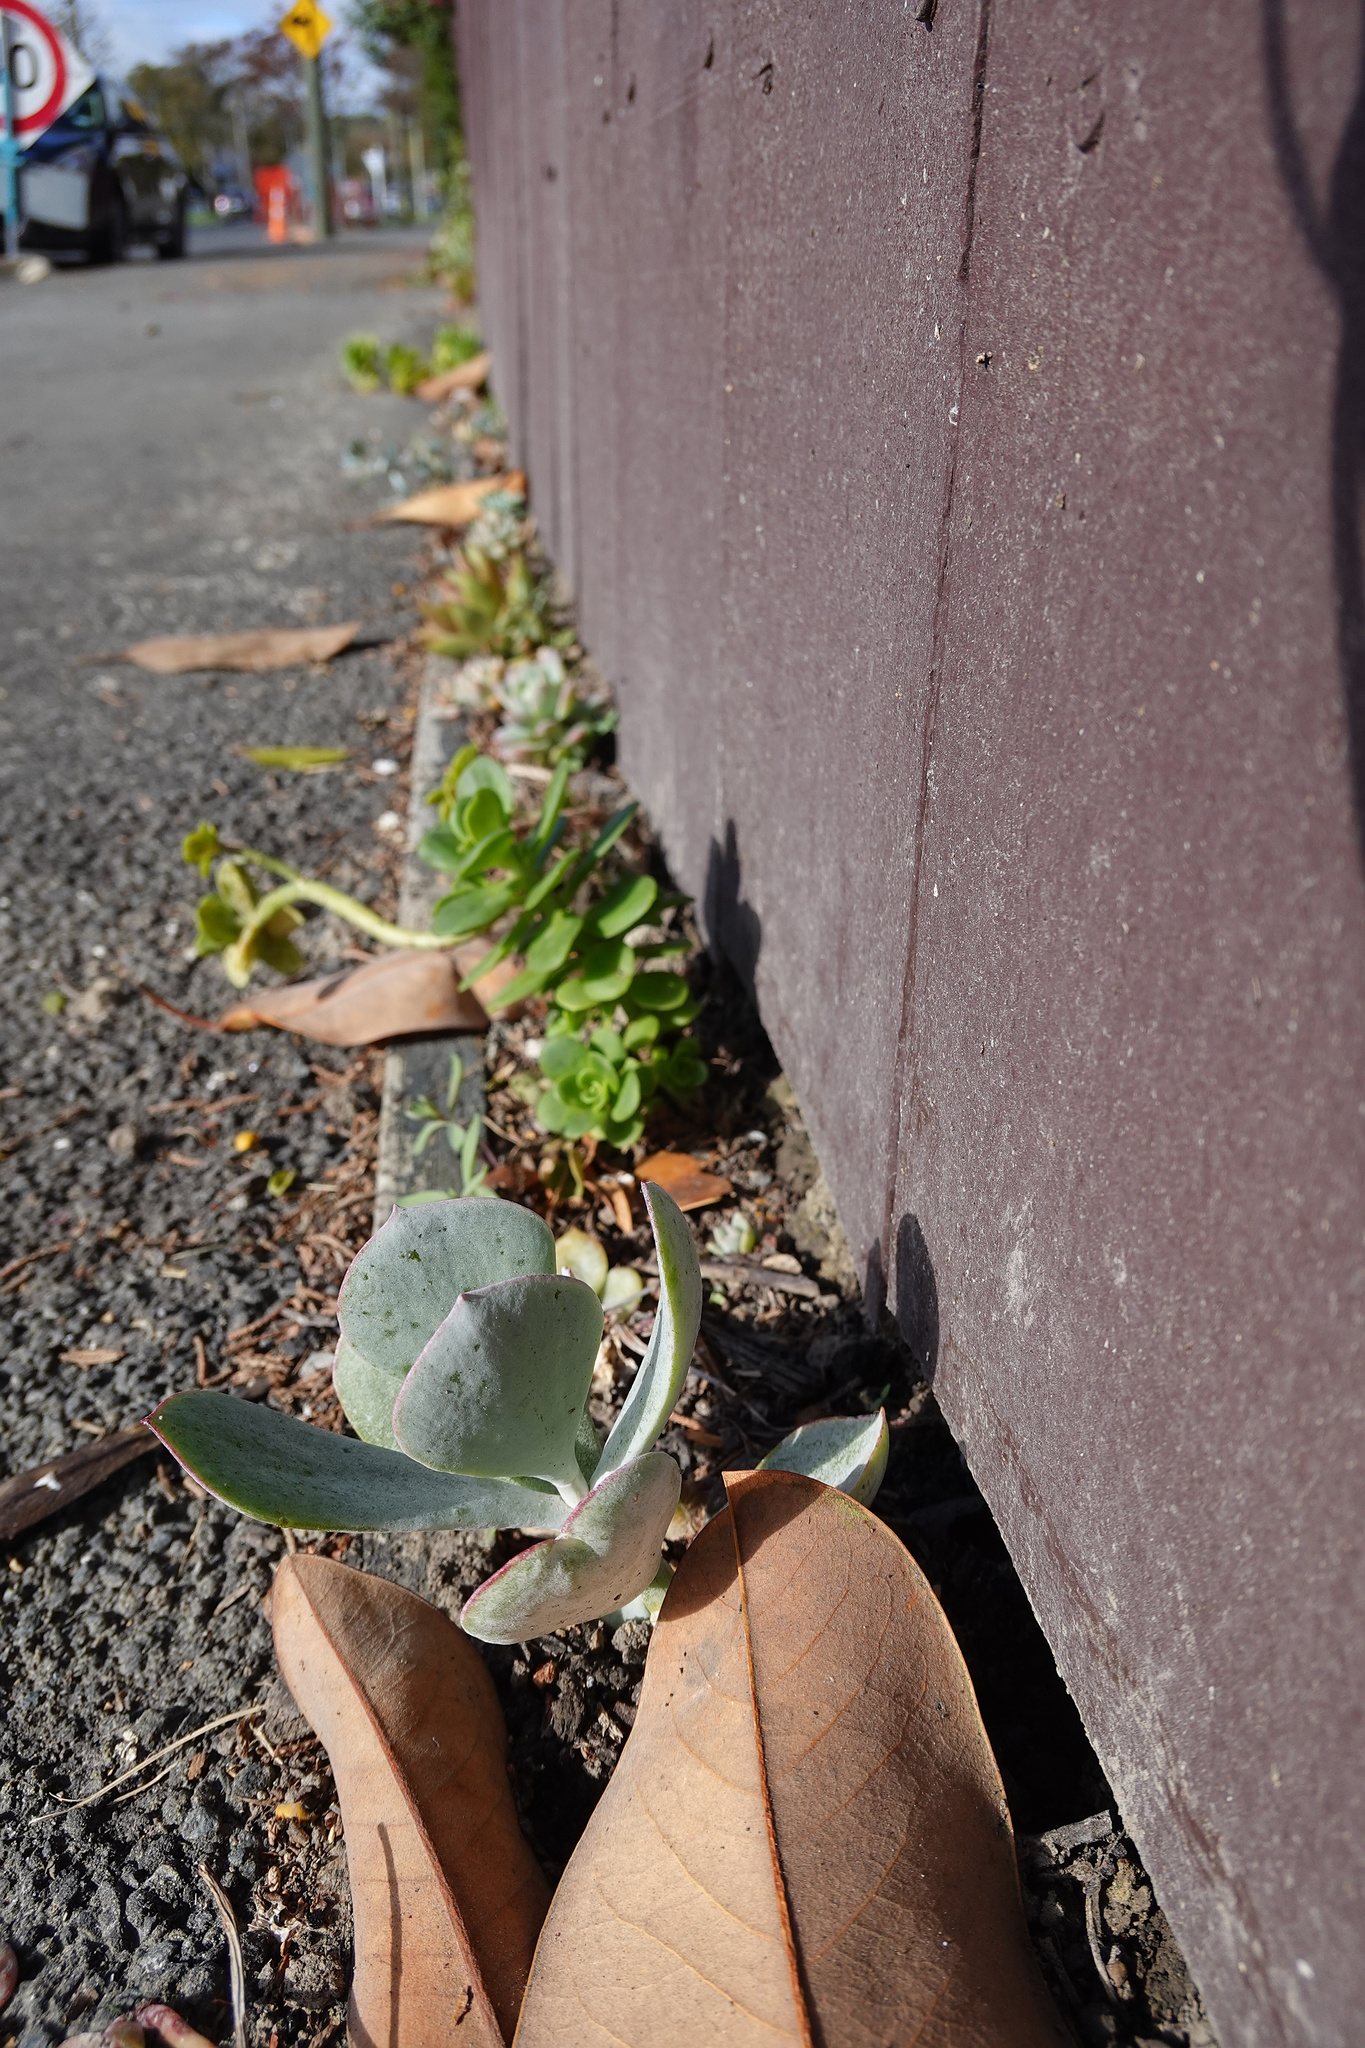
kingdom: Plantae
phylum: Tracheophyta
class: Magnoliopsida
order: Saxifragales
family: Crassulaceae
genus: Cotyledon
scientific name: Cotyledon orbiculata
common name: Pig's ear
